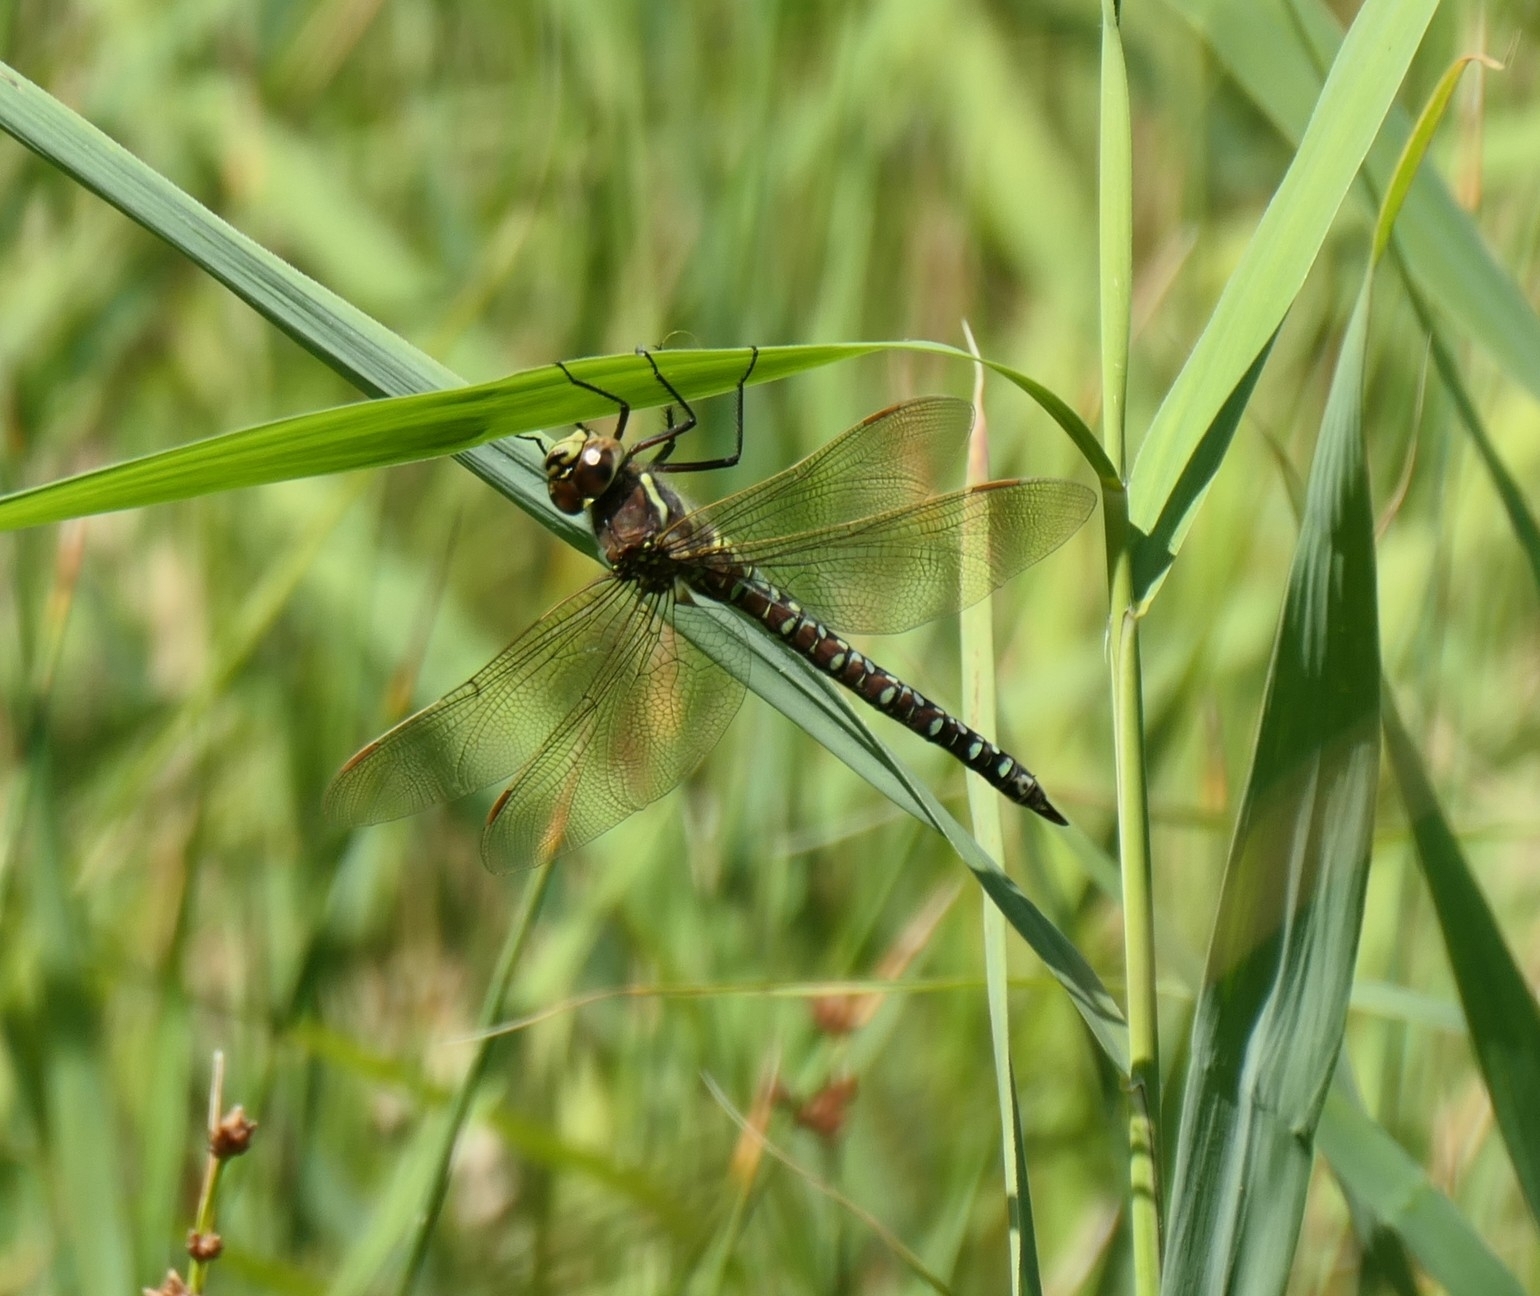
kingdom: Animalia
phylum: Arthropoda
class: Insecta
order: Odonata
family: Aeshnidae
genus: Aeshna
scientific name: Aeshna juncea
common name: Moorland hawker
